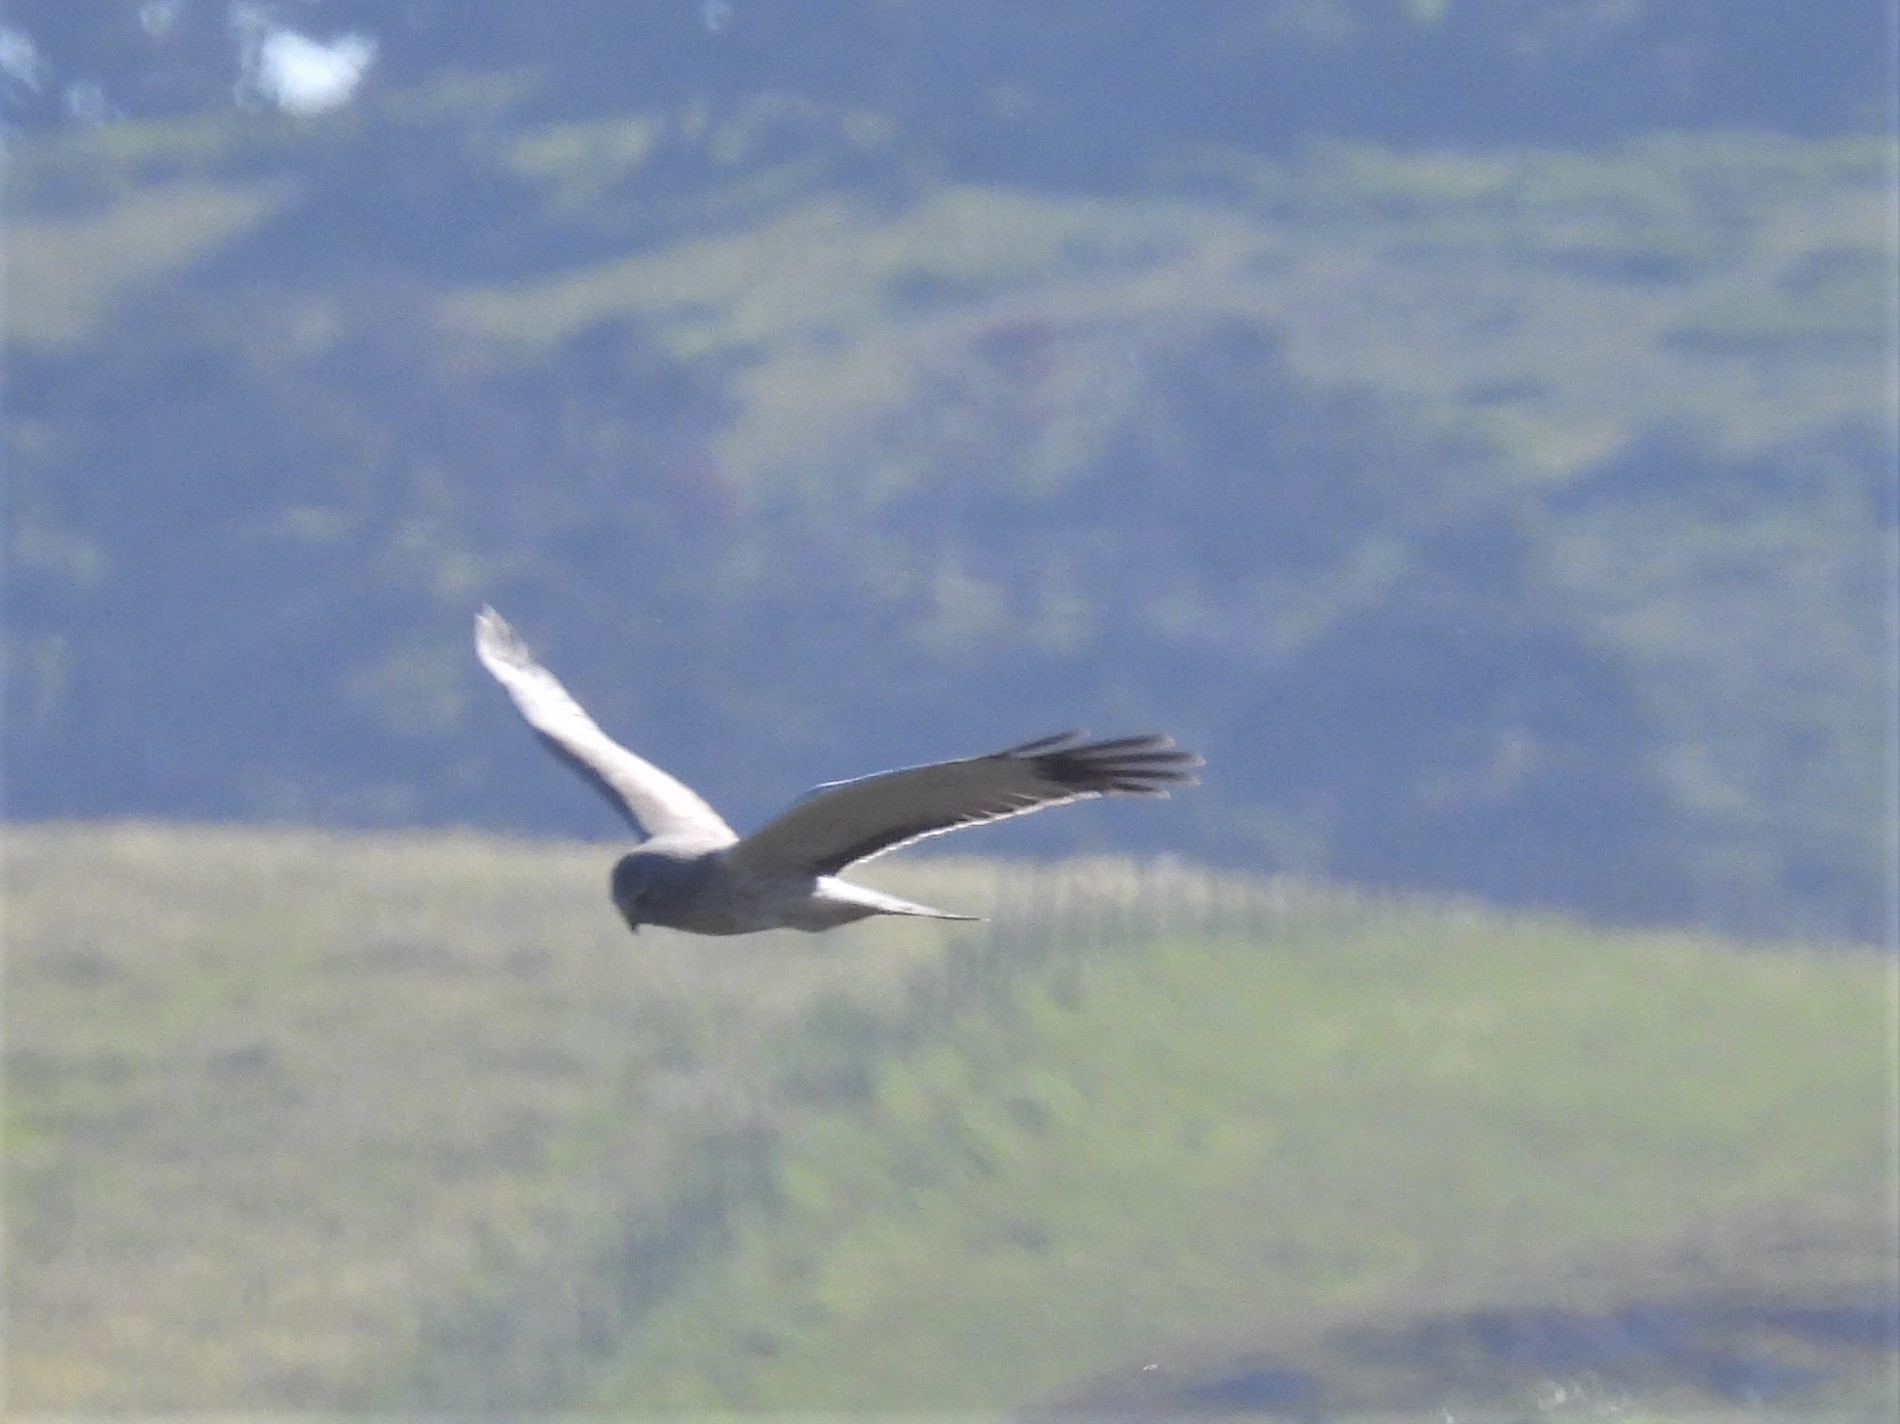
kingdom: Animalia
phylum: Chordata
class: Aves
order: Accipitriformes
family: Accipitridae
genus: Circus
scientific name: Circus cyaneus
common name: Hen harrier
